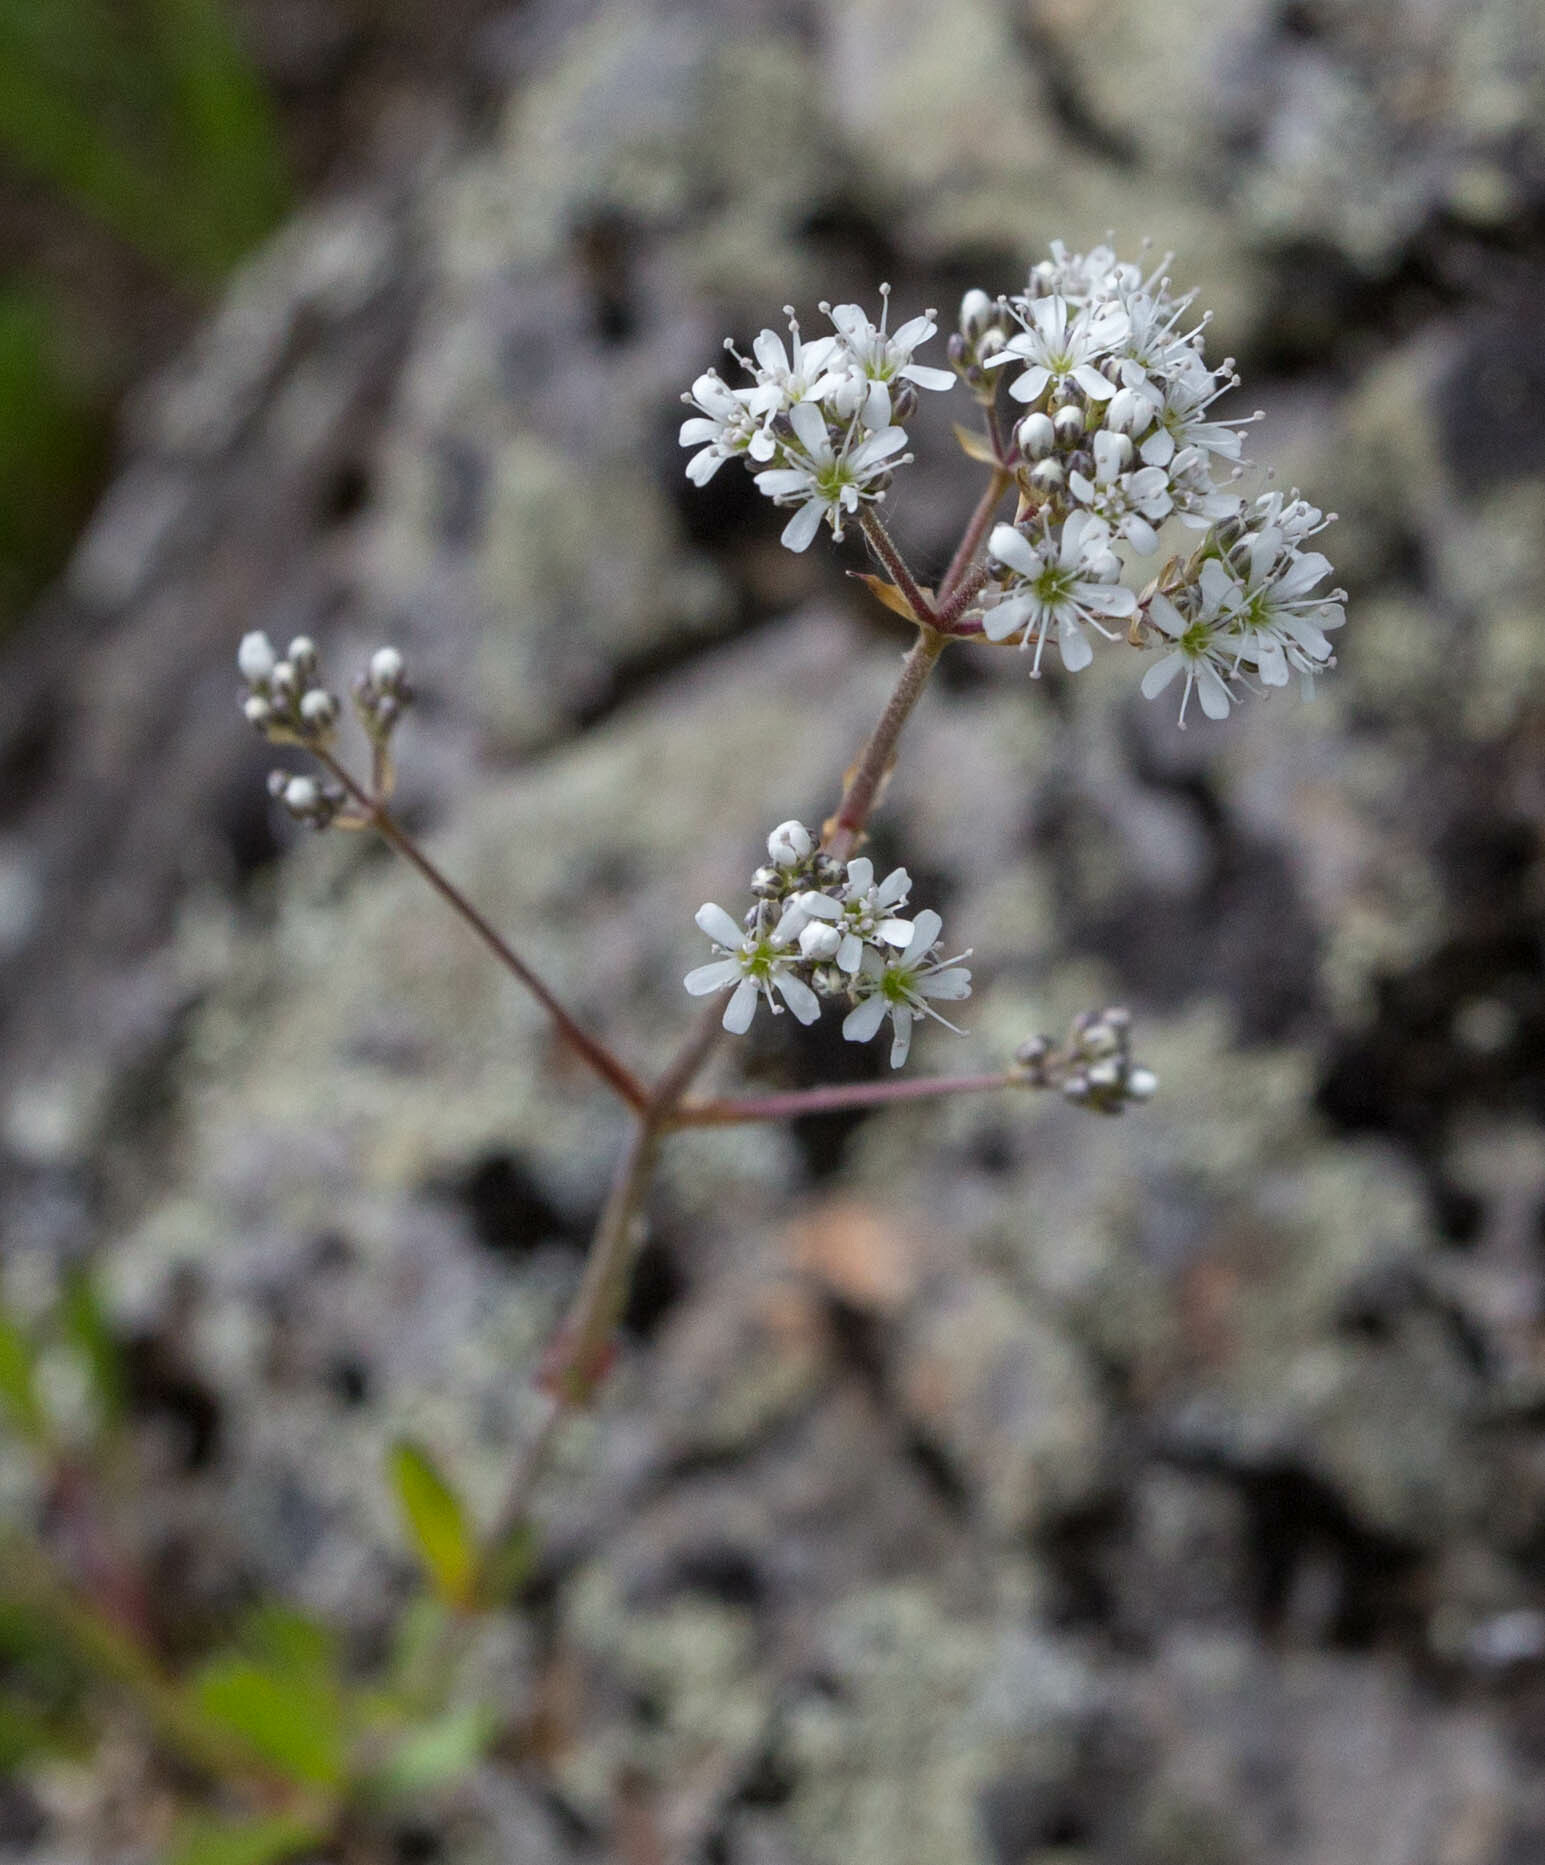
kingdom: Plantae
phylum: Tracheophyta
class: Magnoliopsida
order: Caryophyllales
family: Caryophyllaceae
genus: Gypsophila
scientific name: Gypsophila altissima
